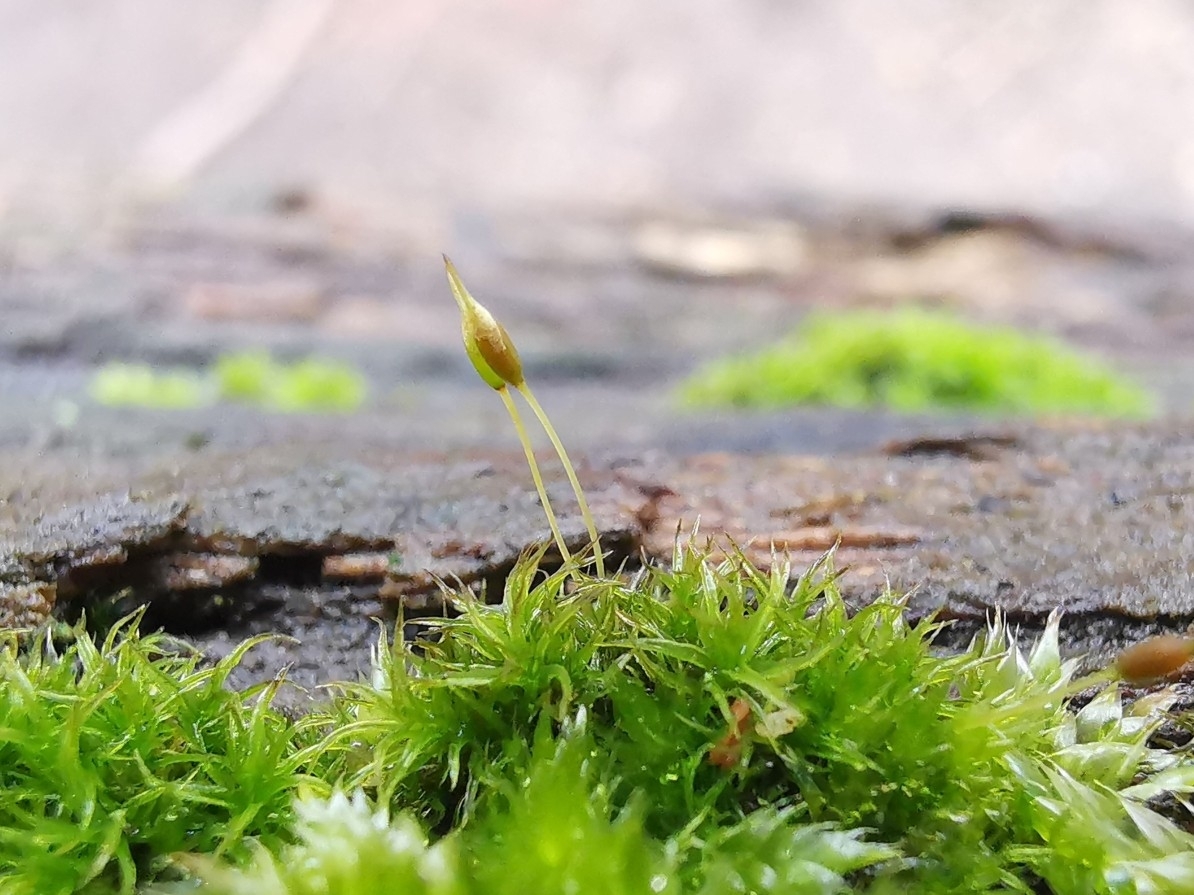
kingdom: Plantae
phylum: Bryophyta
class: Bryopsida
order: Dicranales
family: Rhabdoweisiaceae
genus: Dicranoweisia
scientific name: Dicranoweisia cirrata
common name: Common pincushion
